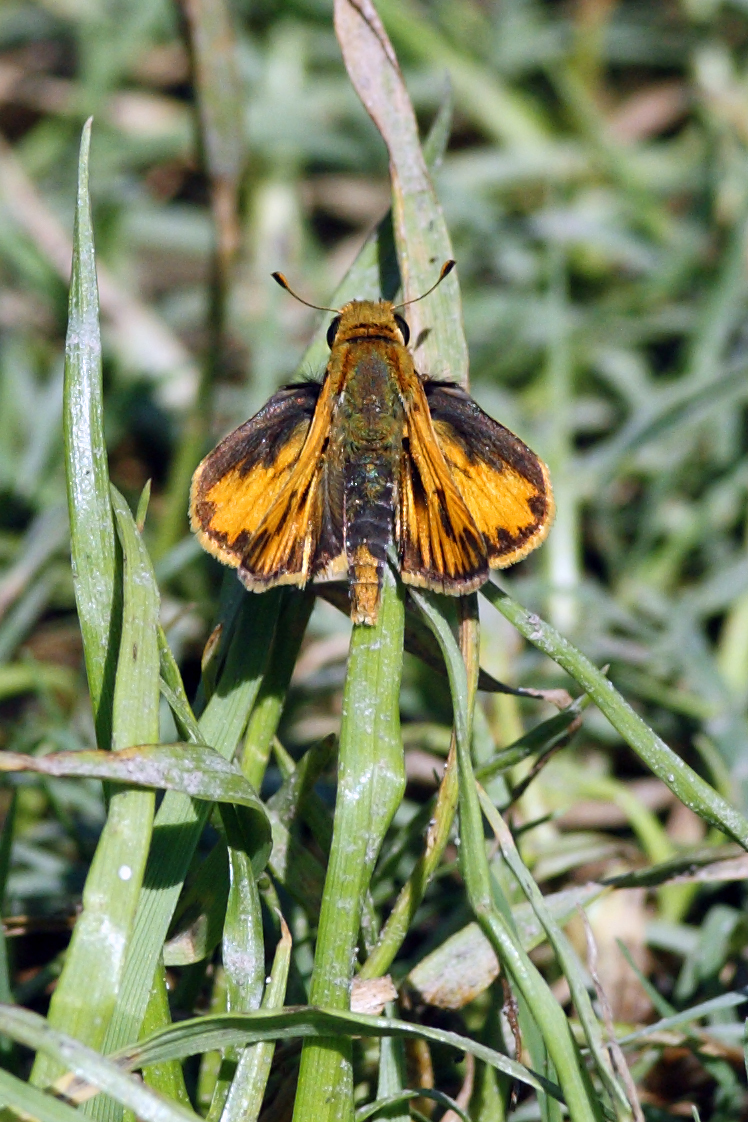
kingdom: Animalia
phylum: Arthropoda
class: Insecta
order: Lepidoptera
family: Hesperiidae
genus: Hylephila
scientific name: Hylephila phyleus
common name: Fiery skipper
